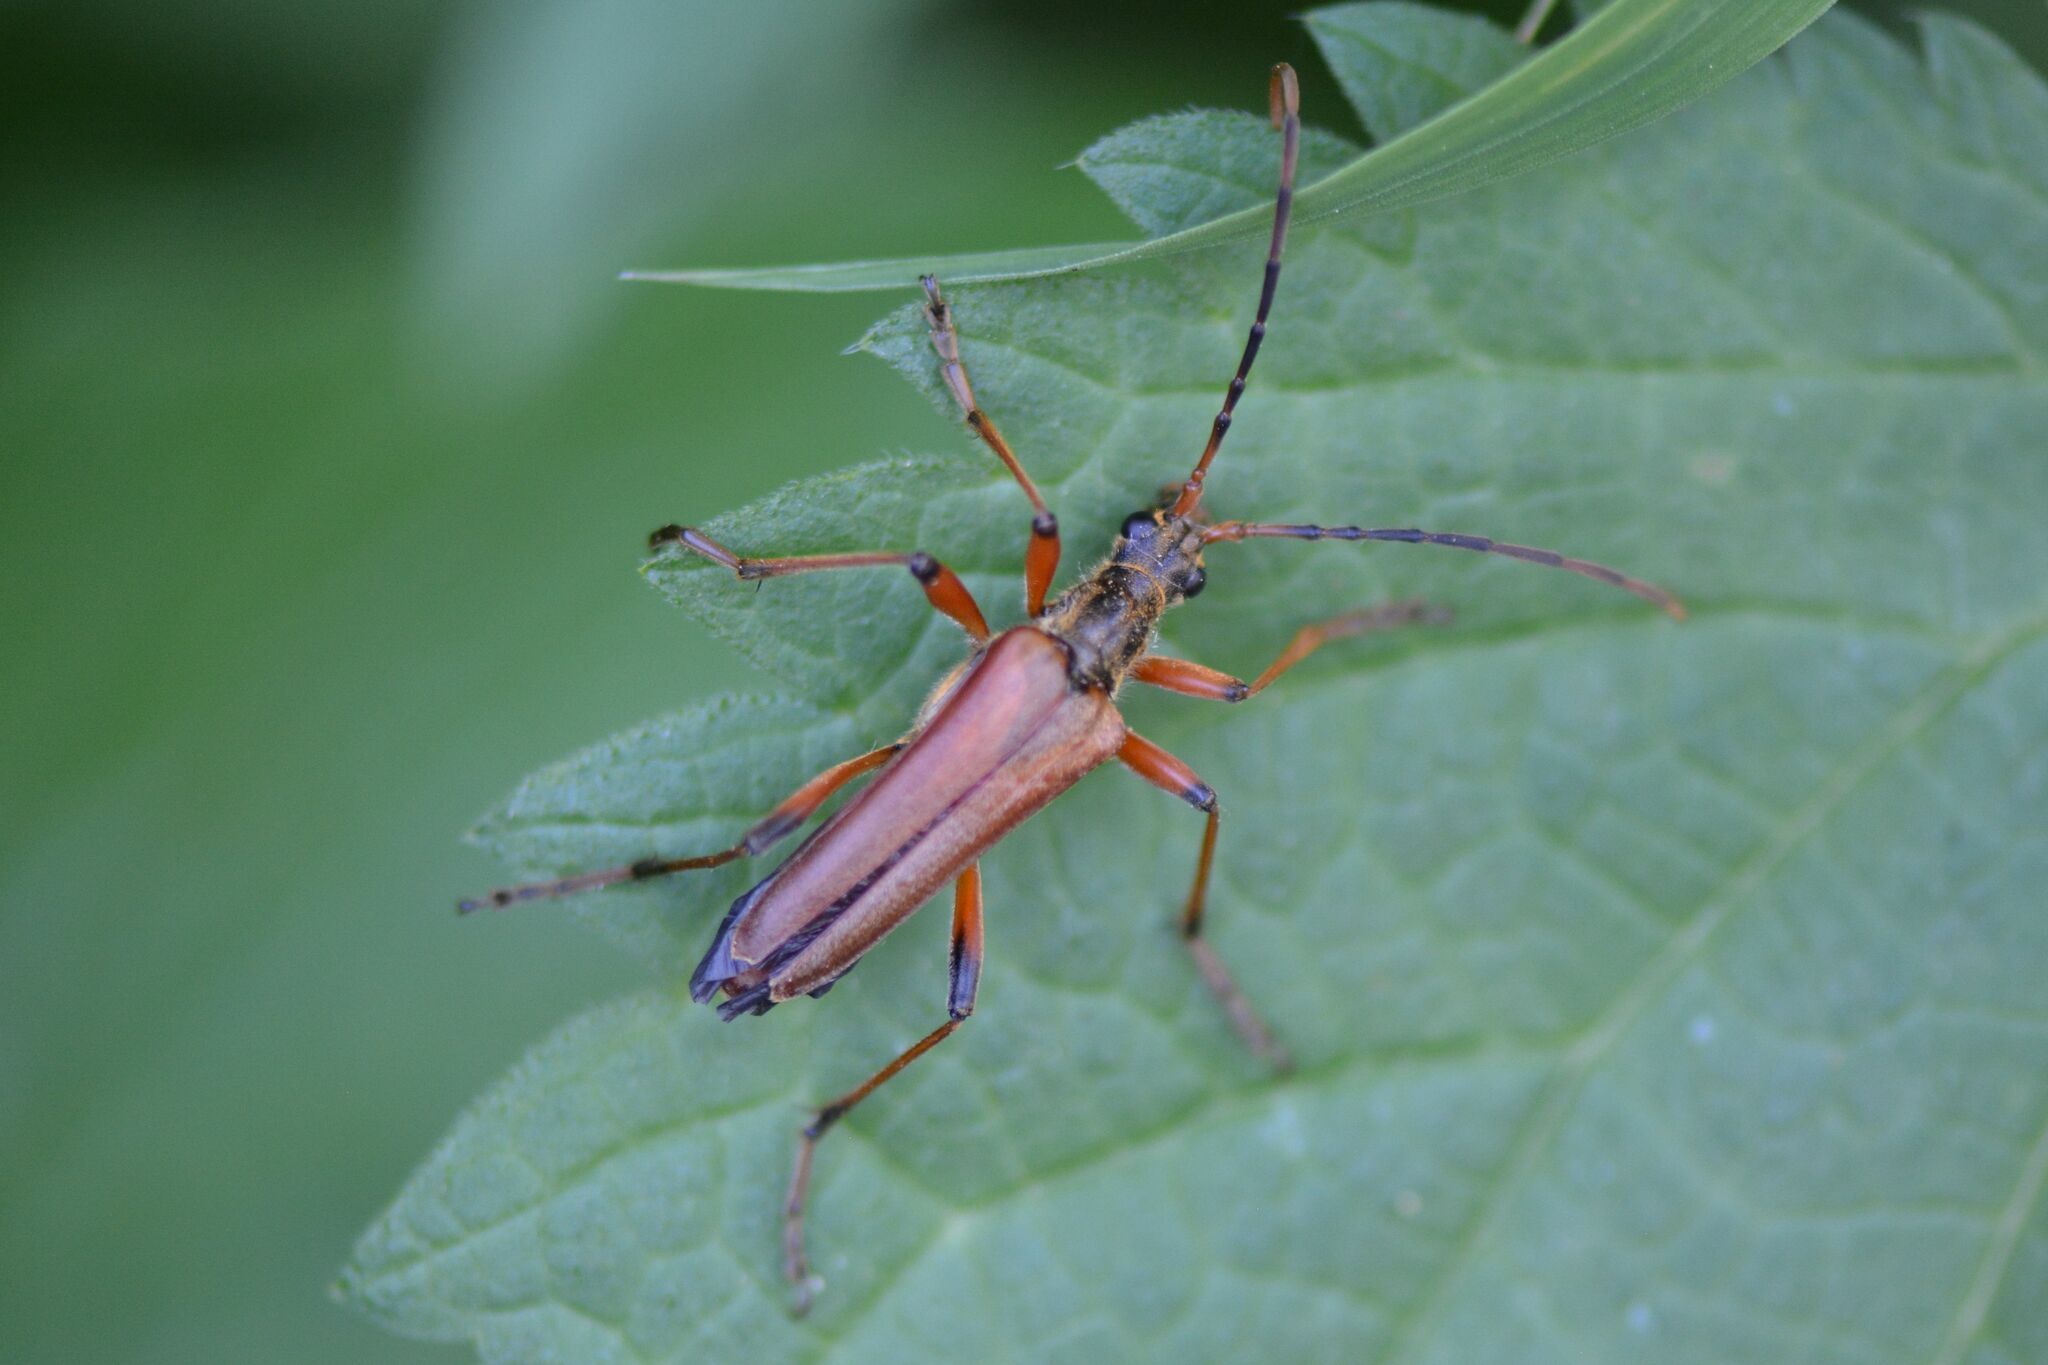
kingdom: Animalia
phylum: Arthropoda
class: Insecta
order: Coleoptera
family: Cerambycidae
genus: Stenocorus
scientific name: Stenocorus meridianus
